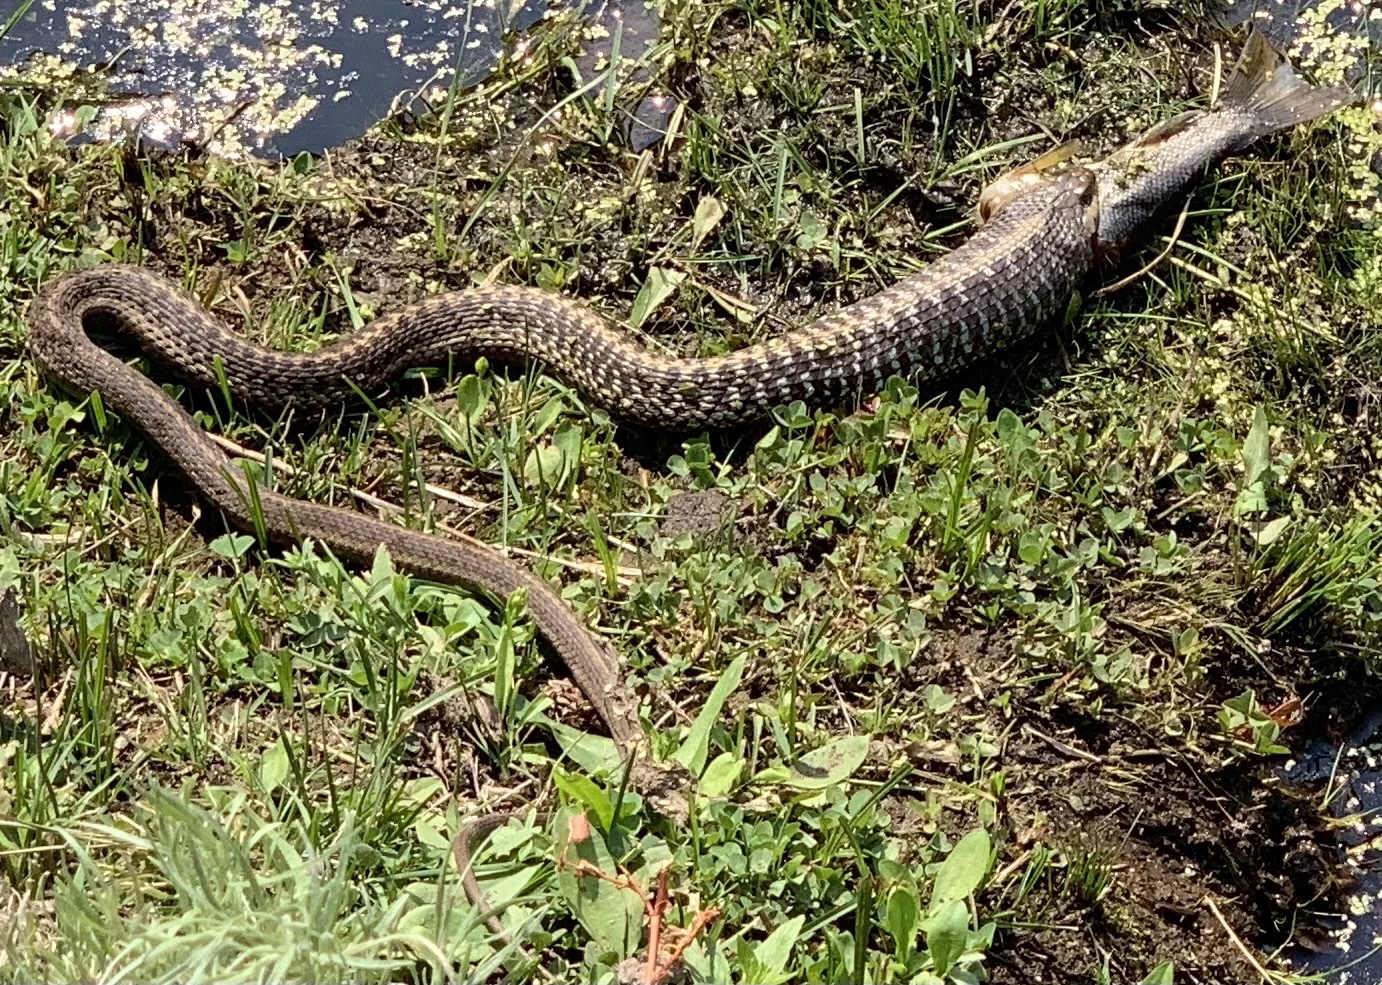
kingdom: Animalia
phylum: Chordata
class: Squamata
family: Colubridae
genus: Thamnophis
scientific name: Thamnophis elegans
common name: Western terrestrial garter snake
